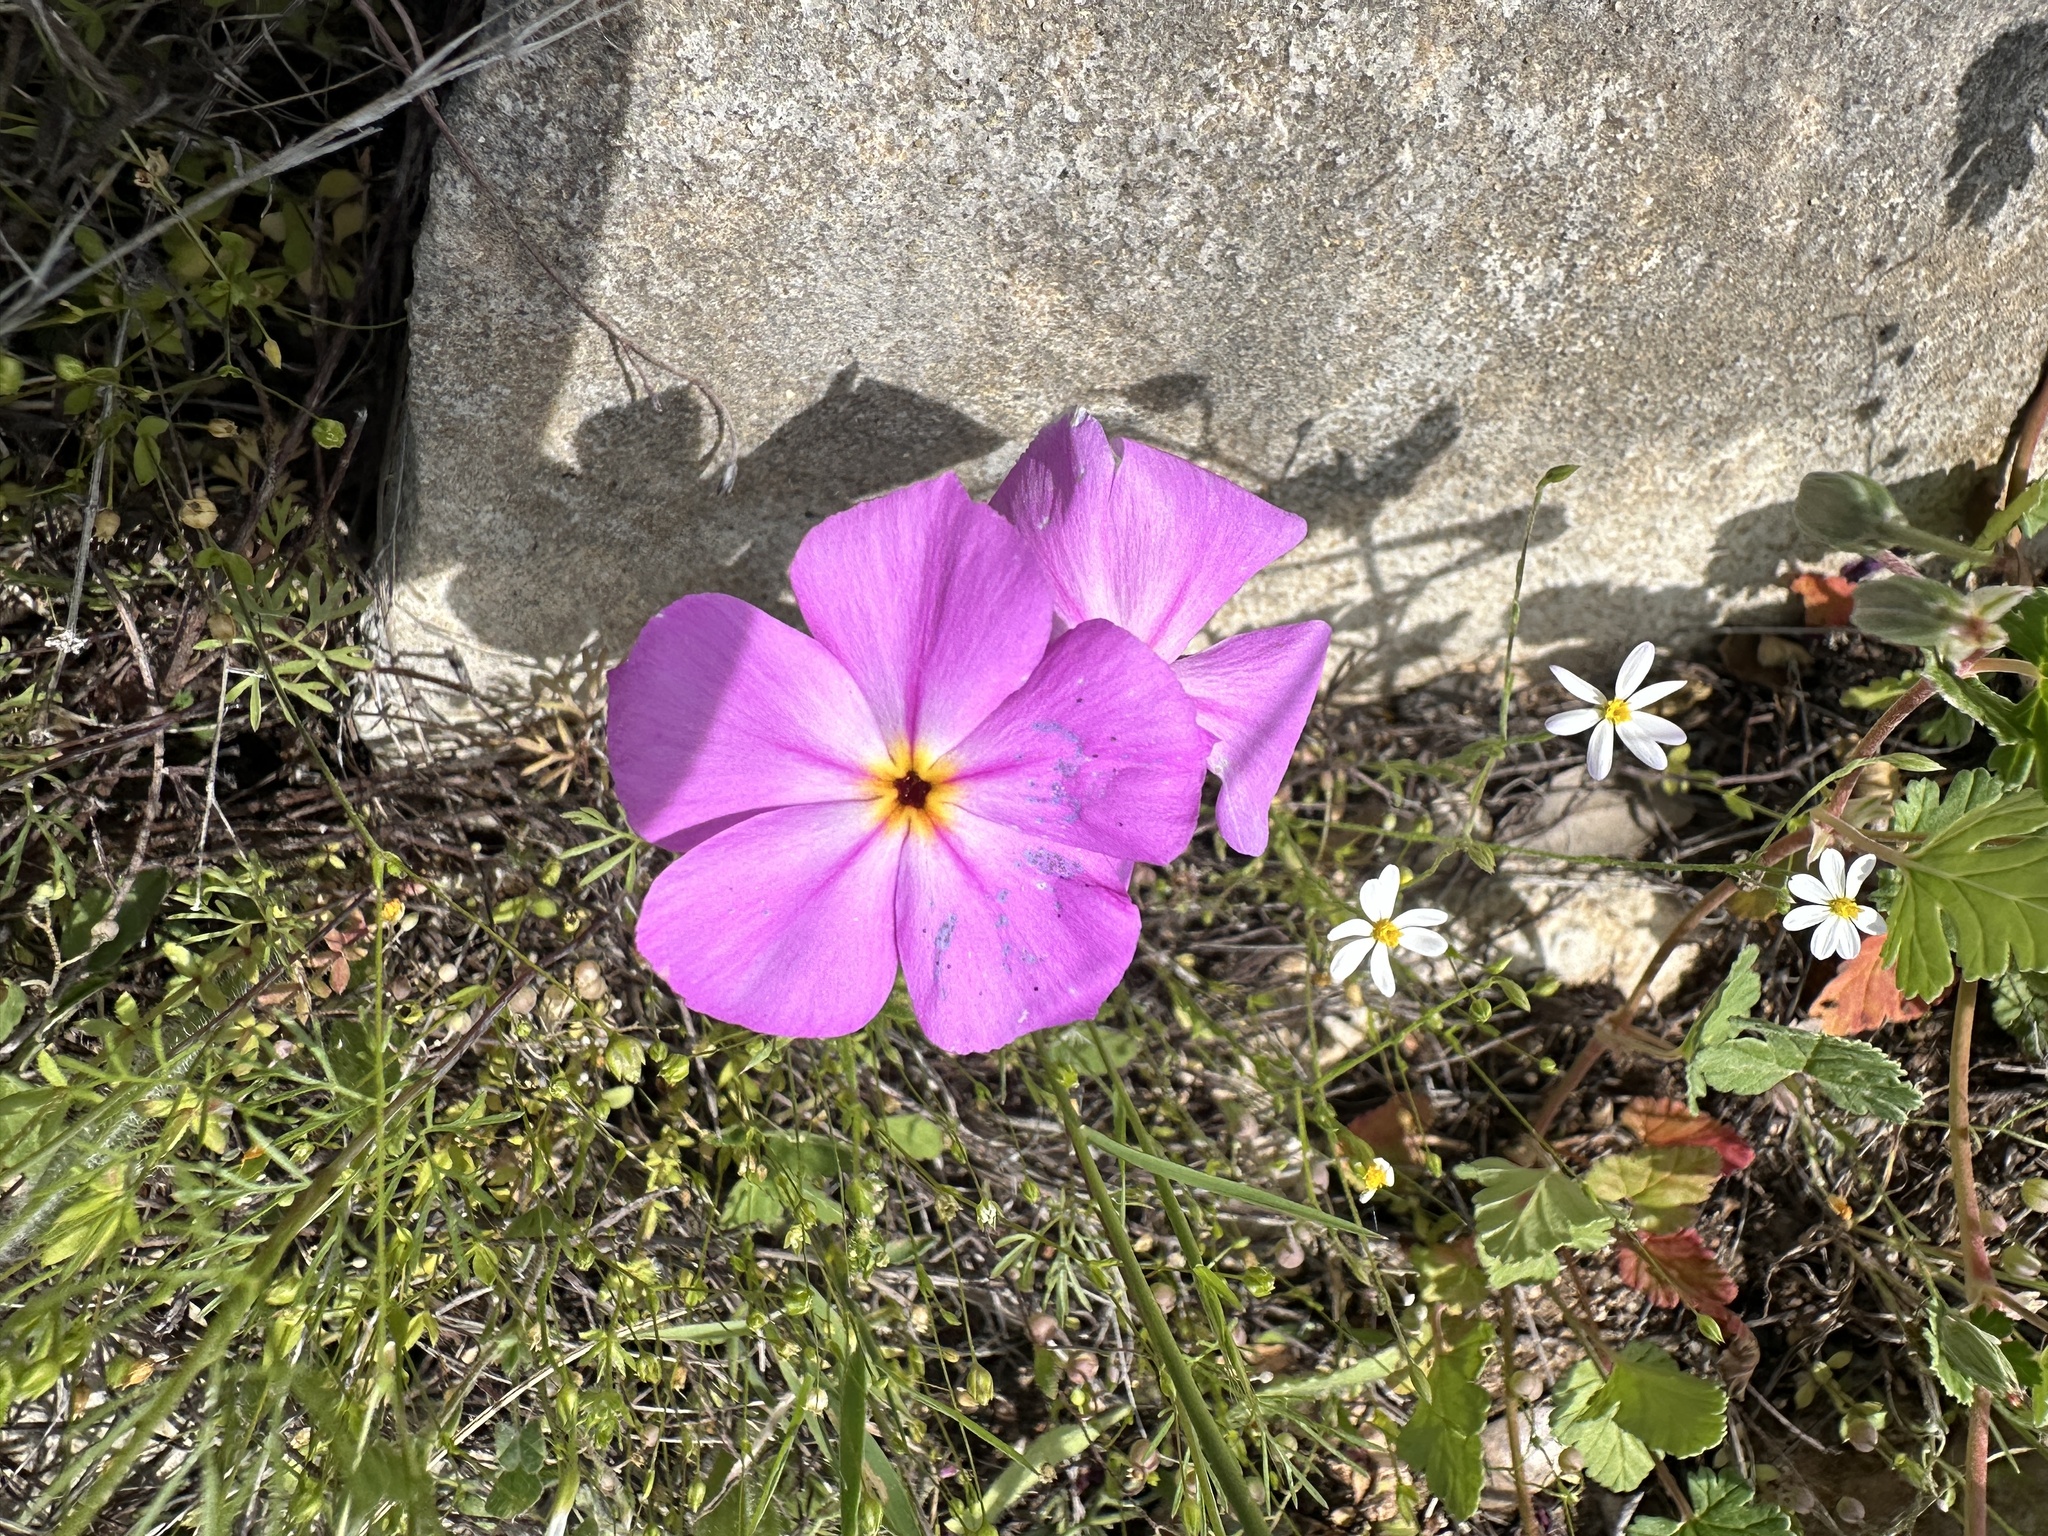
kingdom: Plantae
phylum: Tracheophyta
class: Magnoliopsida
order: Ericales
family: Polemoniaceae
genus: Phlox
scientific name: Phlox roemeriana
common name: Roemer's phlox
